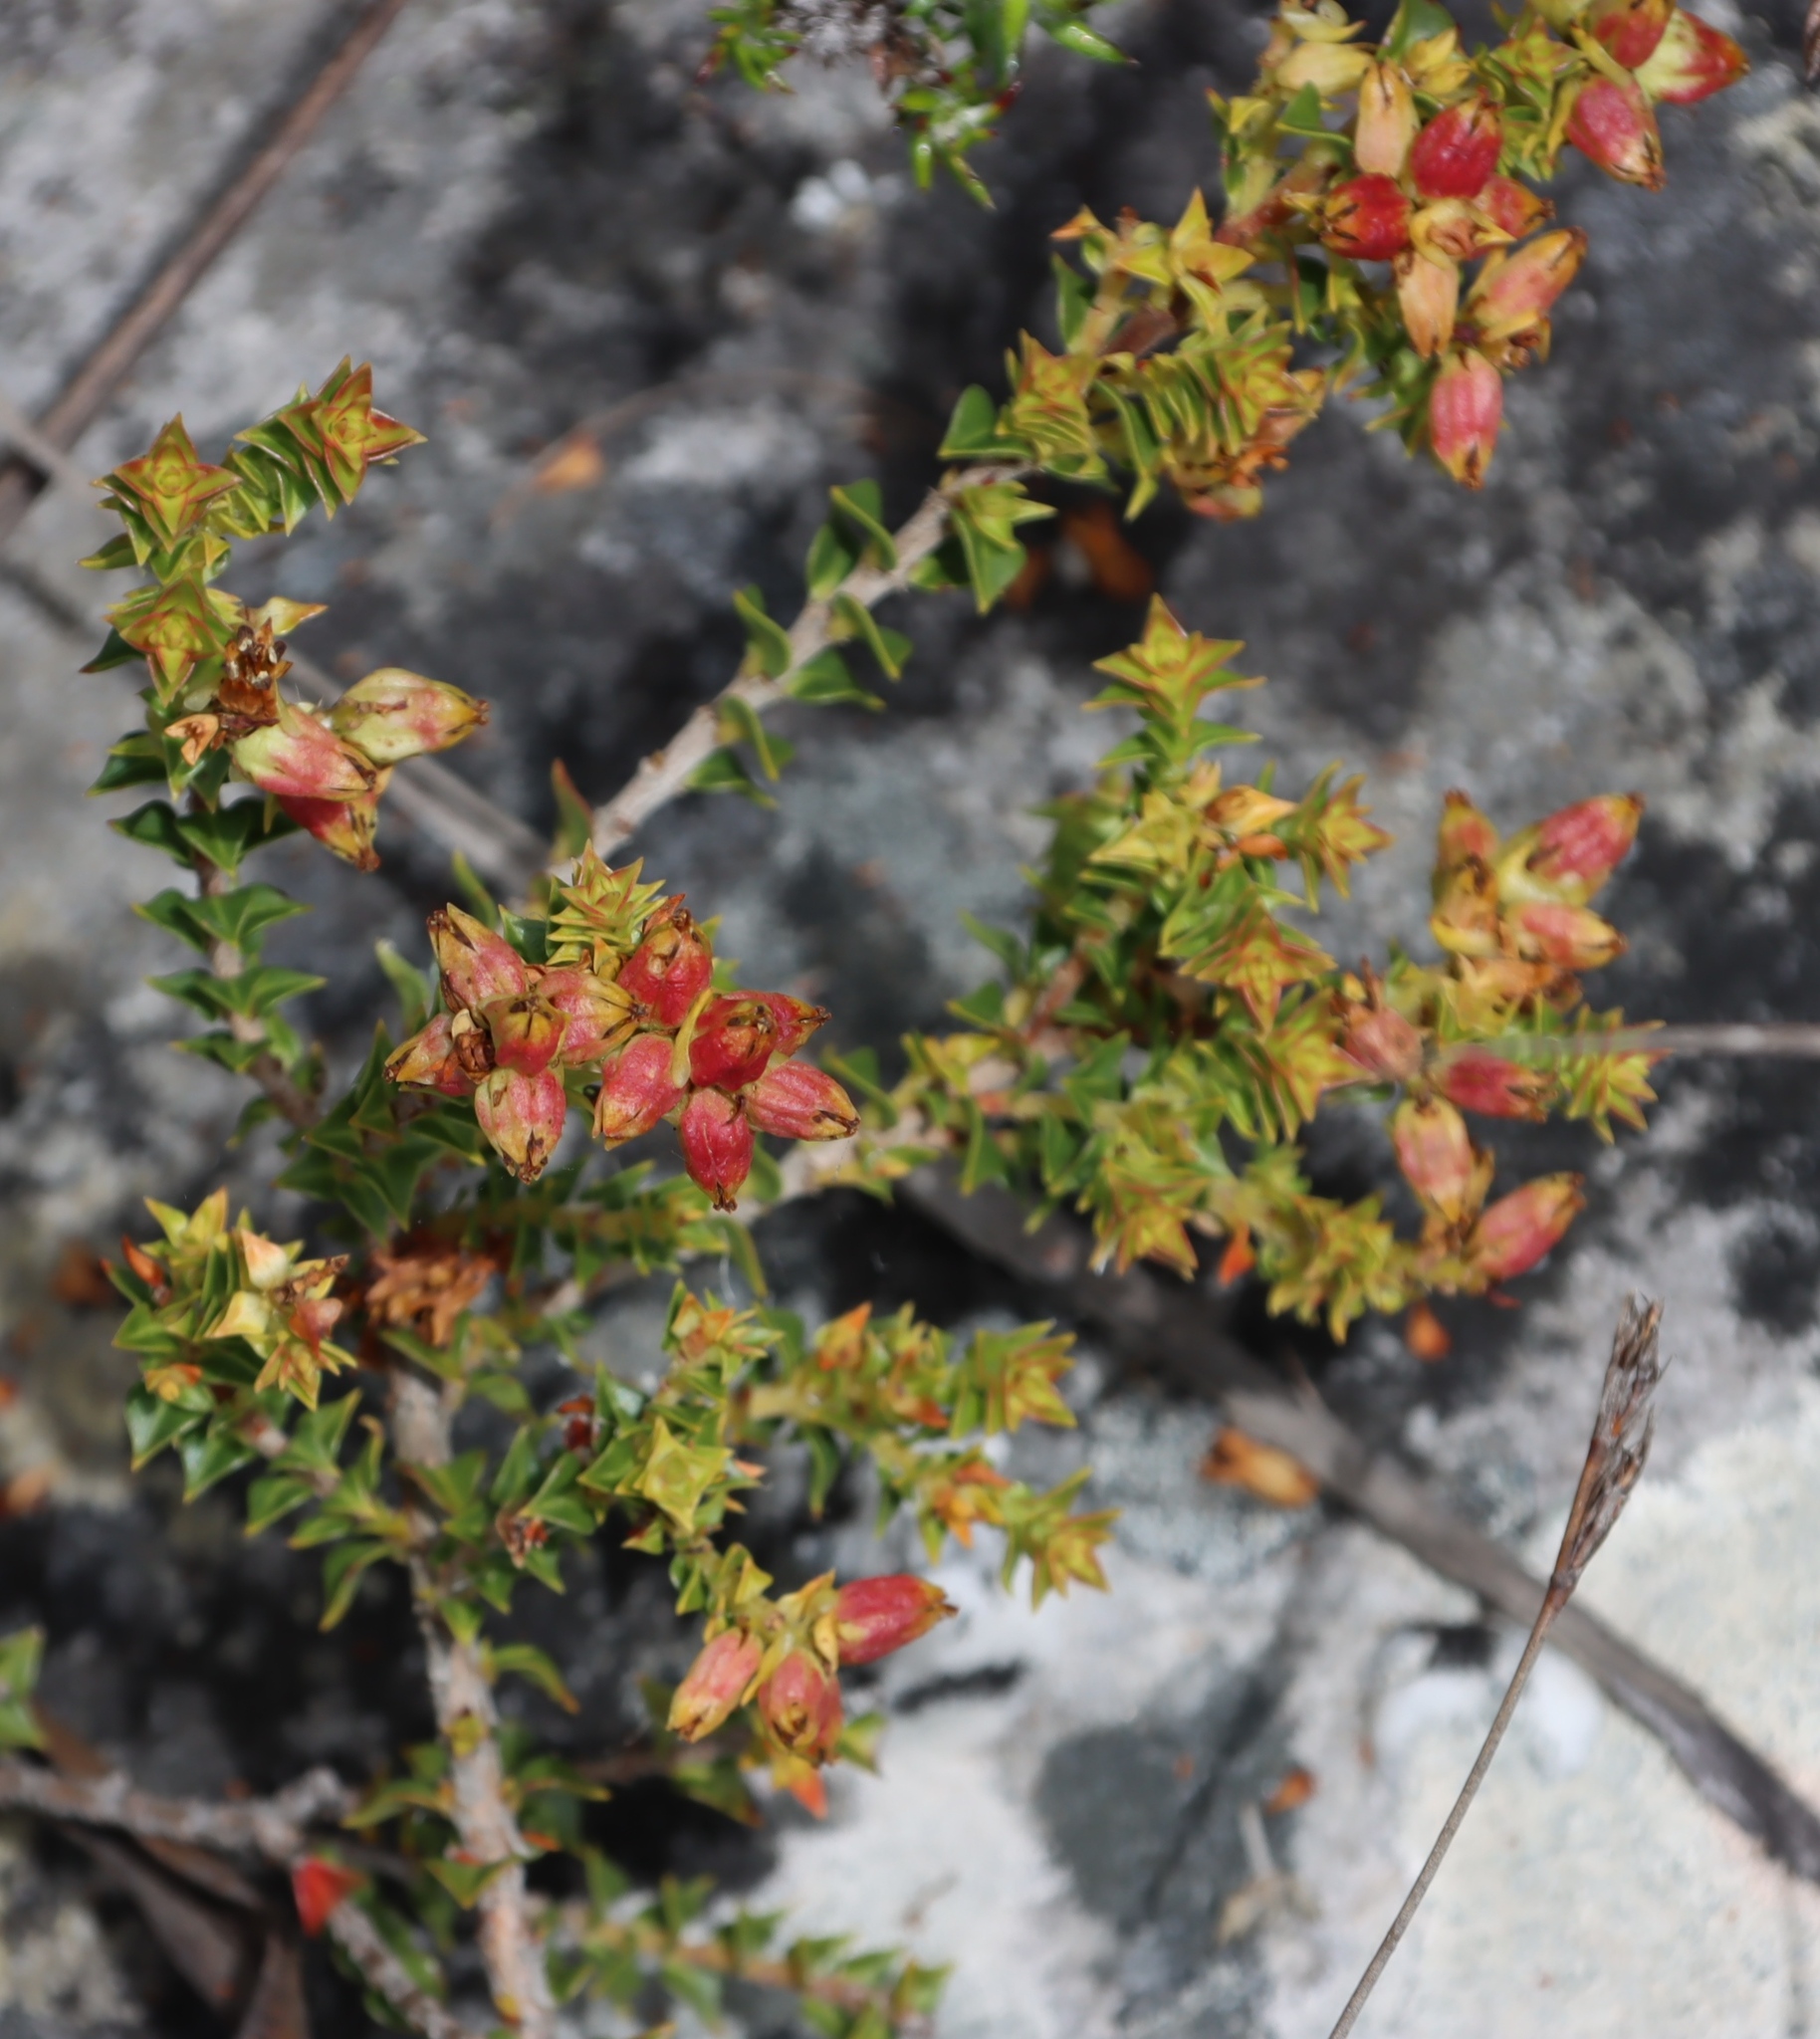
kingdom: Plantae
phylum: Tracheophyta
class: Magnoliopsida
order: Myrtales
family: Penaeaceae
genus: Penaea
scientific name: Penaea mucronata
